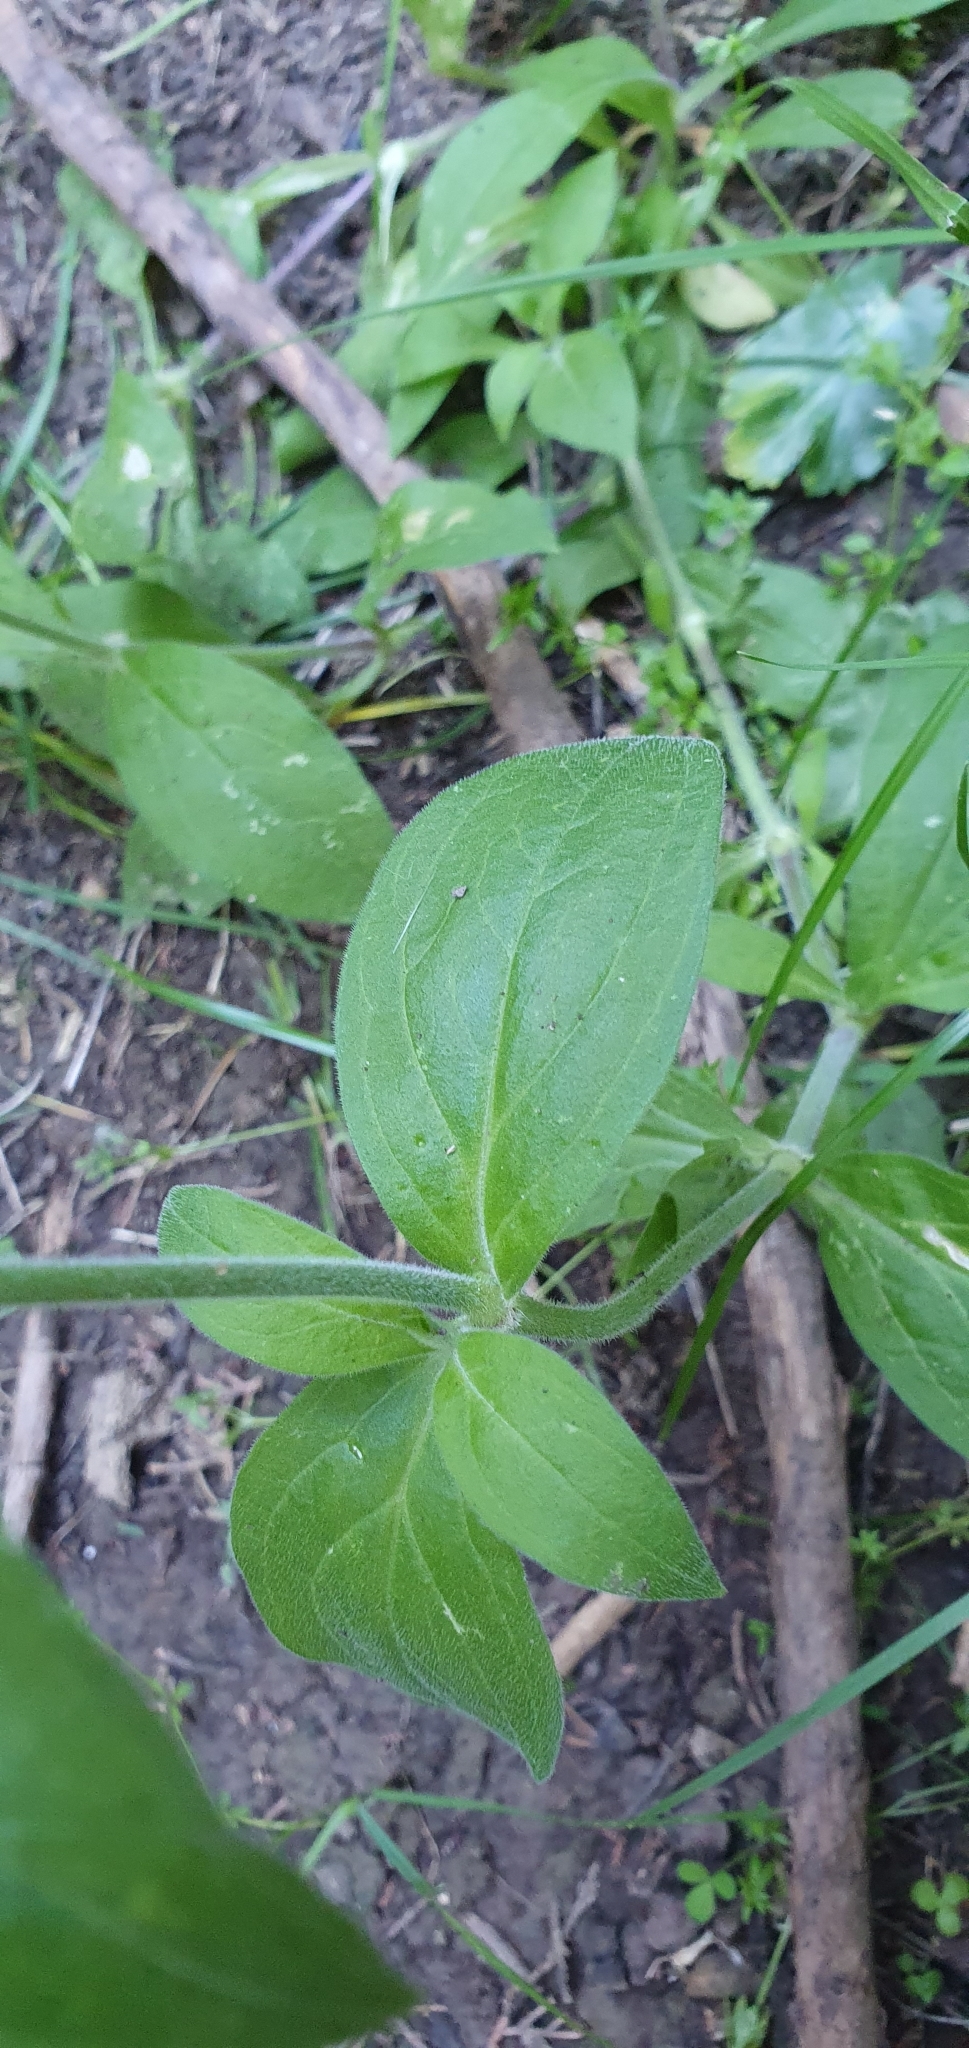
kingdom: Plantae
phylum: Tracheophyta
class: Magnoliopsida
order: Caryophyllales
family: Caryophyllaceae
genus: Silene
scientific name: Silene latifolia
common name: White campion
